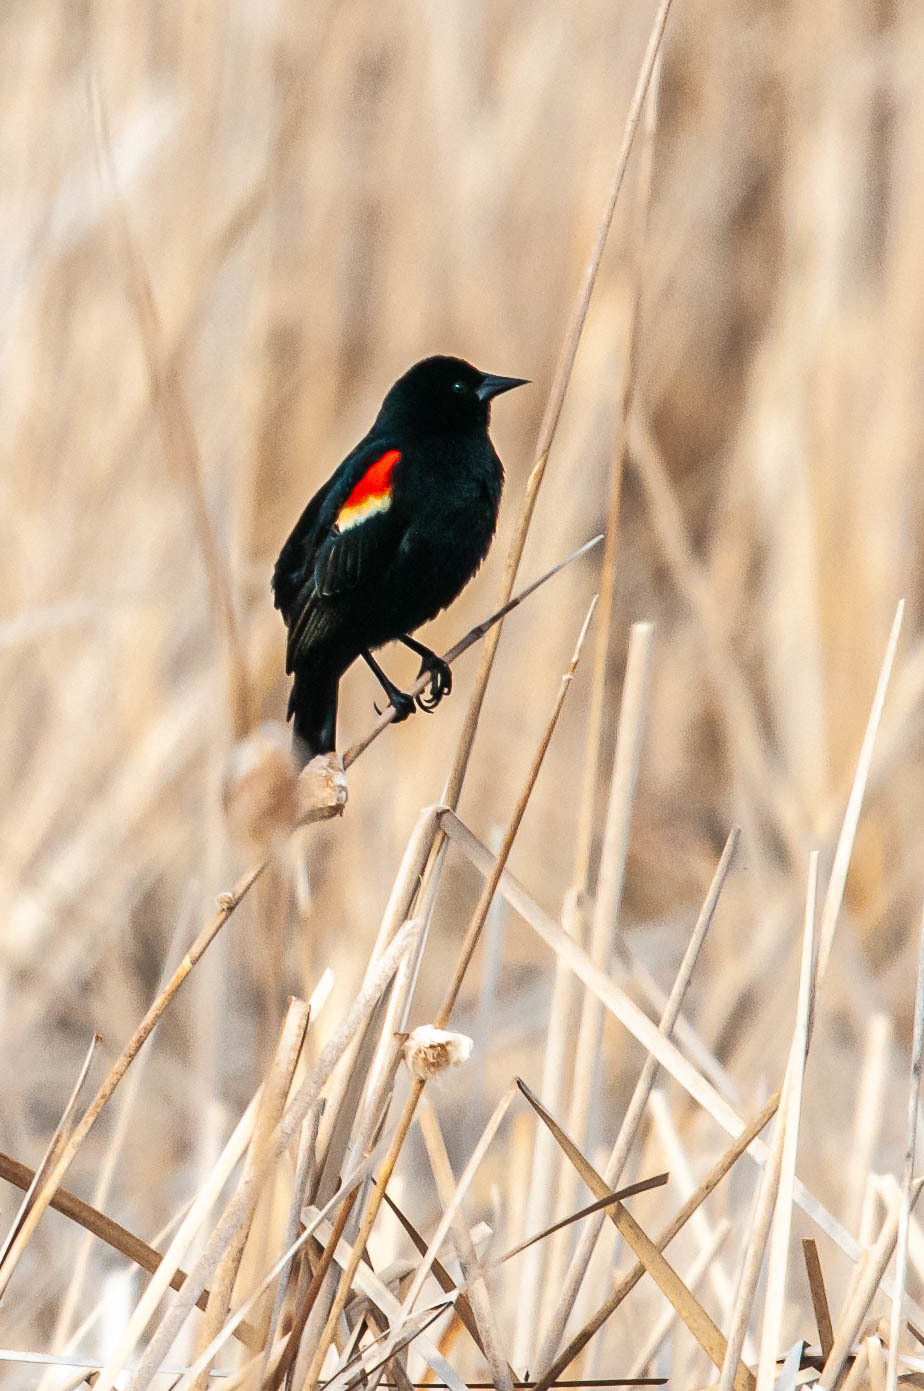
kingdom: Animalia
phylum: Chordata
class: Aves
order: Passeriformes
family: Icteridae
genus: Agelaius
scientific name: Agelaius phoeniceus
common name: Red-winged blackbird
